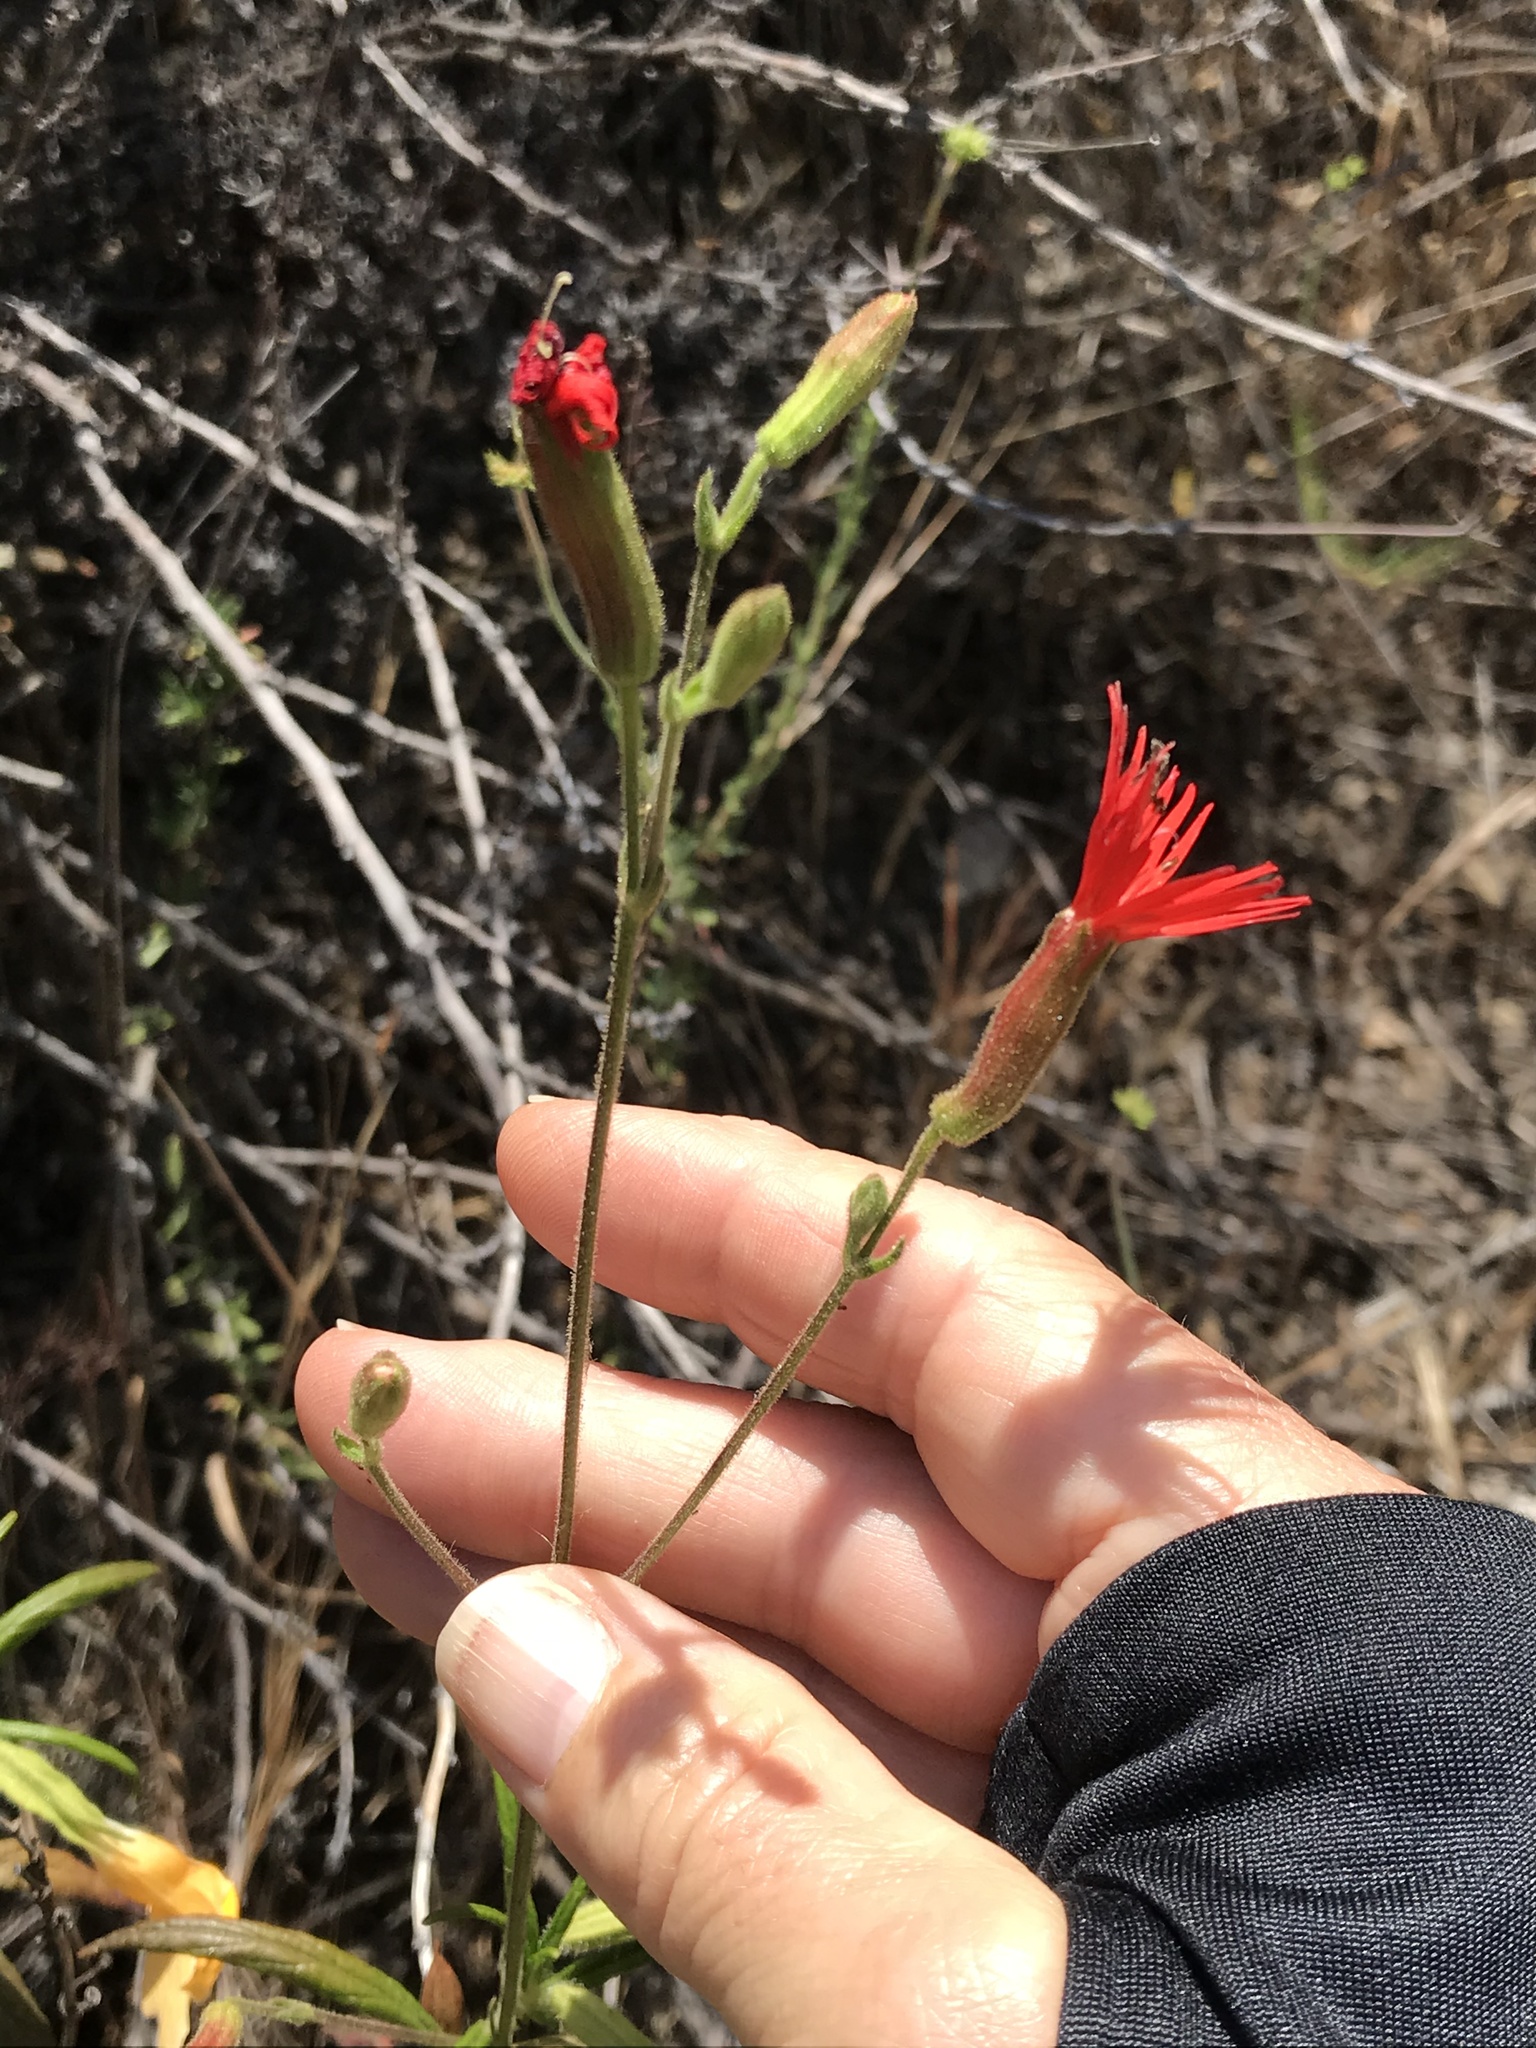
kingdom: Plantae
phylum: Tracheophyta
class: Magnoliopsida
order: Caryophyllales
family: Caryophyllaceae
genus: Silene
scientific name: Silene laciniata
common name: Indian-pink
